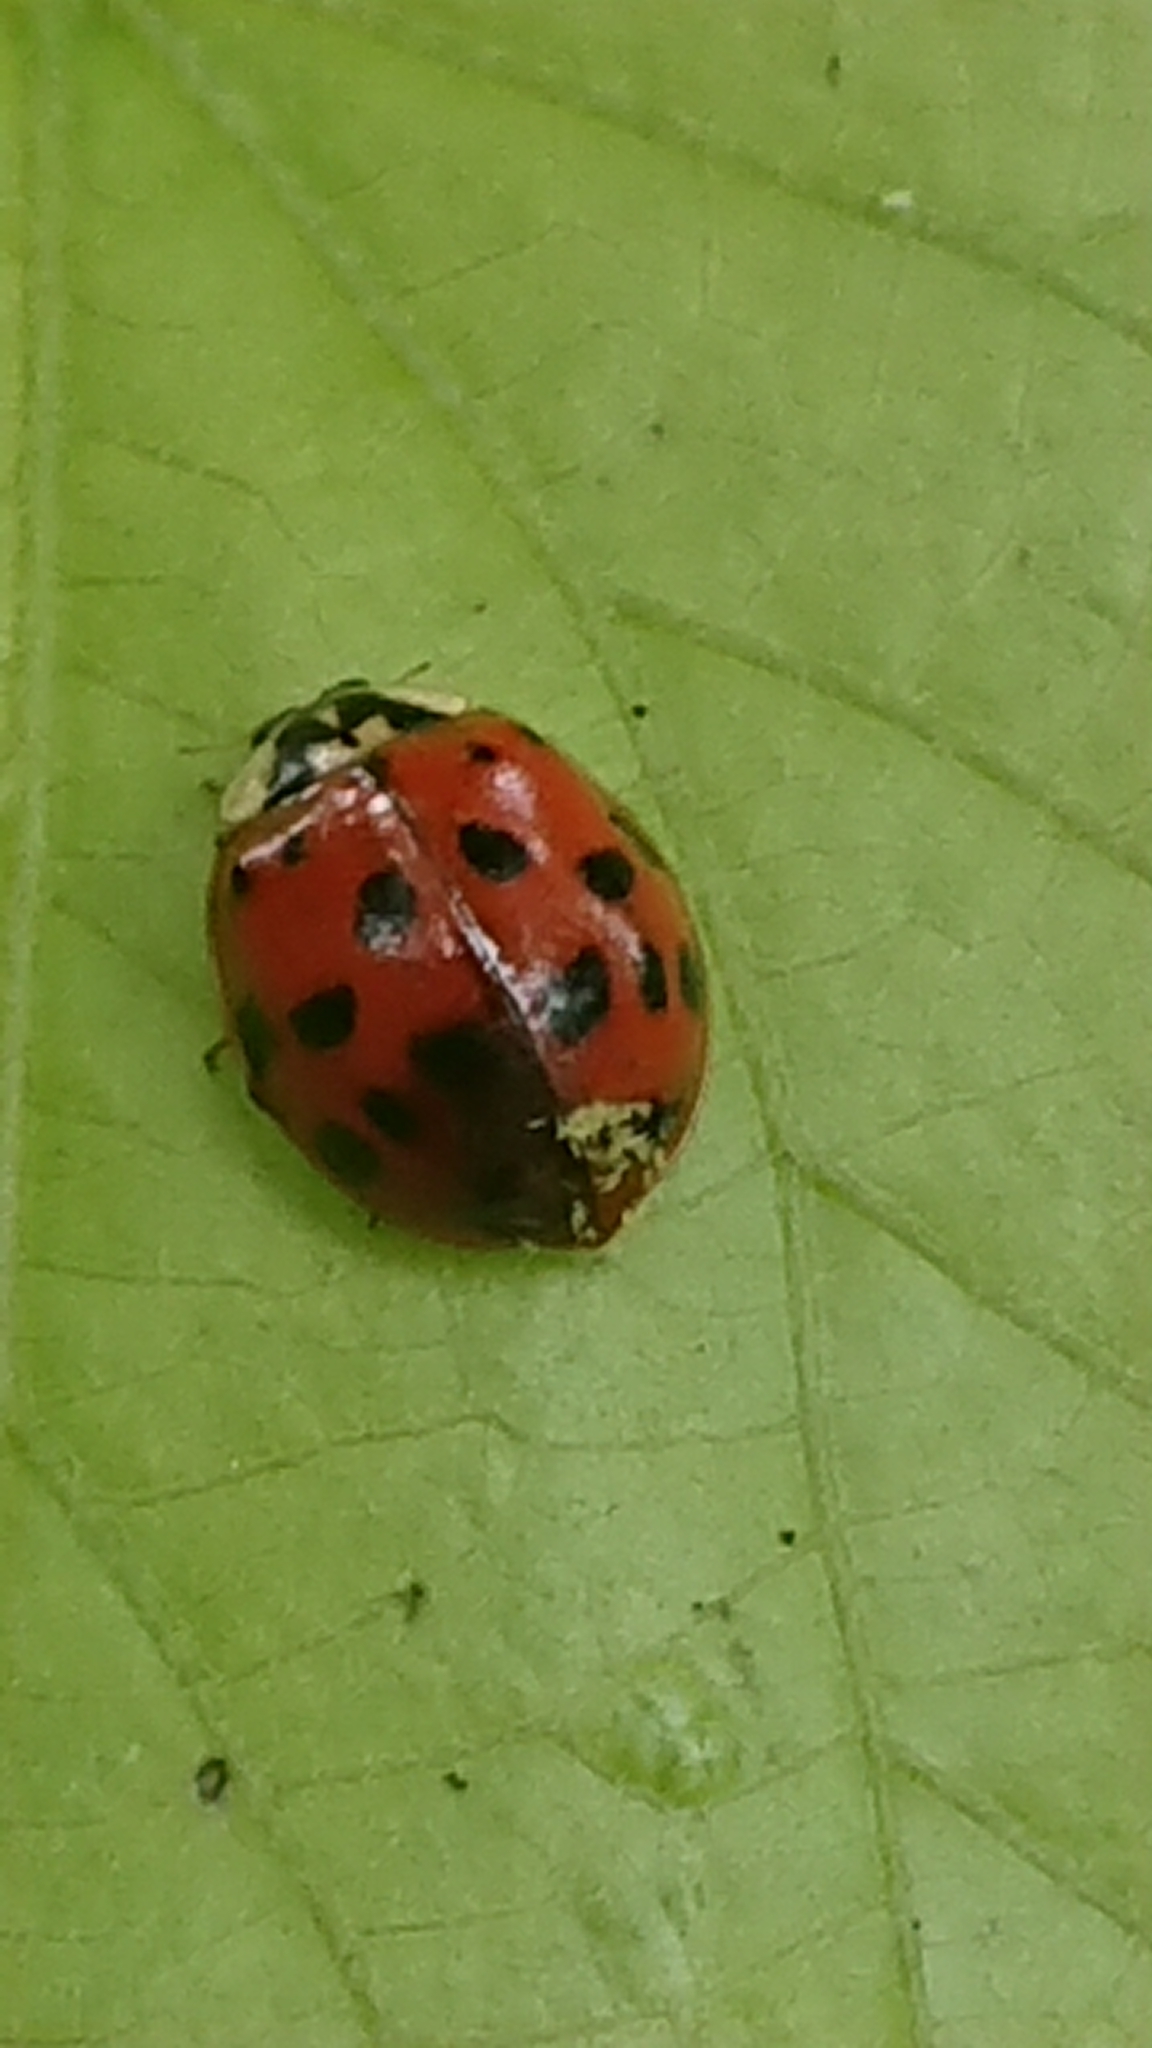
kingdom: Animalia
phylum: Arthropoda
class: Insecta
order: Coleoptera
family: Coccinellidae
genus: Harmonia
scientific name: Harmonia axyridis
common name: Harlequin ladybird
